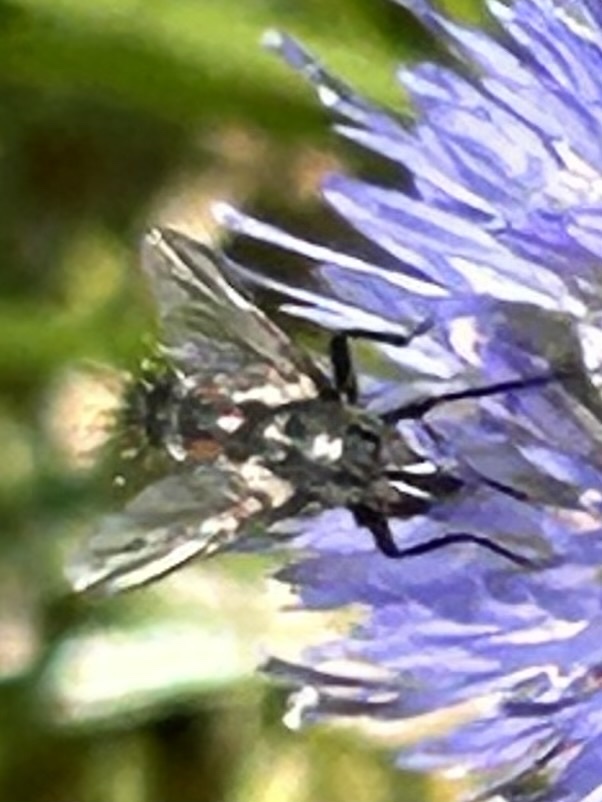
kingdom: Animalia
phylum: Arthropoda
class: Insecta
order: Diptera
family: Tachinidae
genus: Eriothrix
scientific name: Eriothrix rufomaculatus
